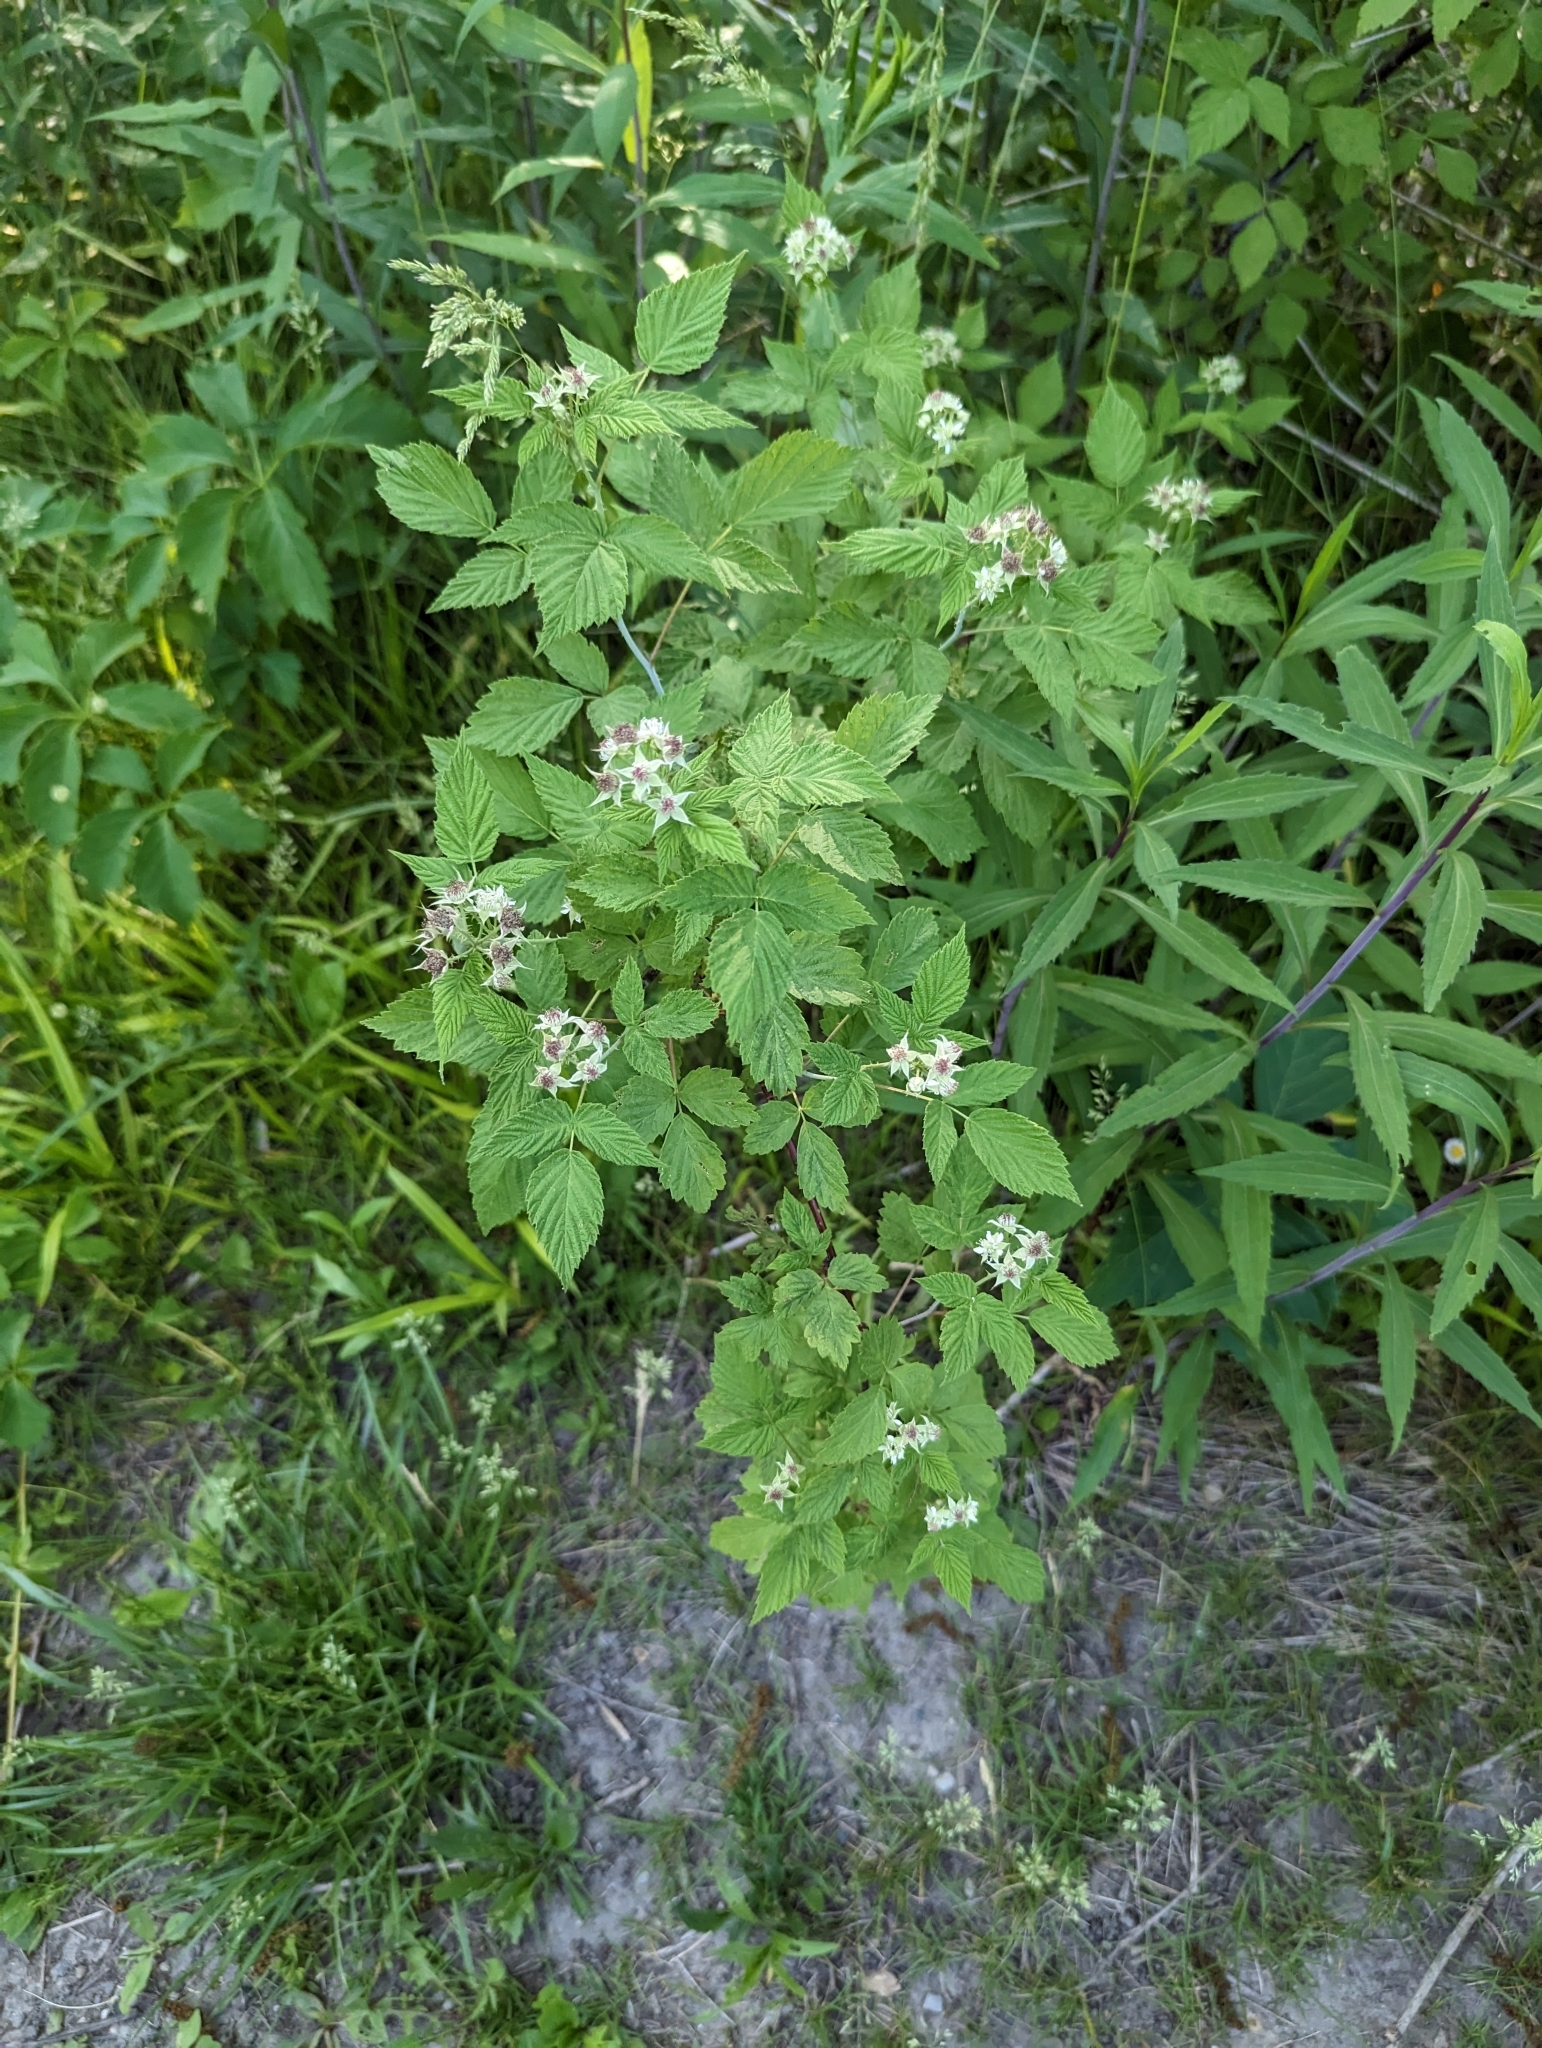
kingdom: Plantae
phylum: Tracheophyta
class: Magnoliopsida
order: Rosales
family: Rosaceae
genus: Rubus
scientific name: Rubus occidentalis
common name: Black raspberry
